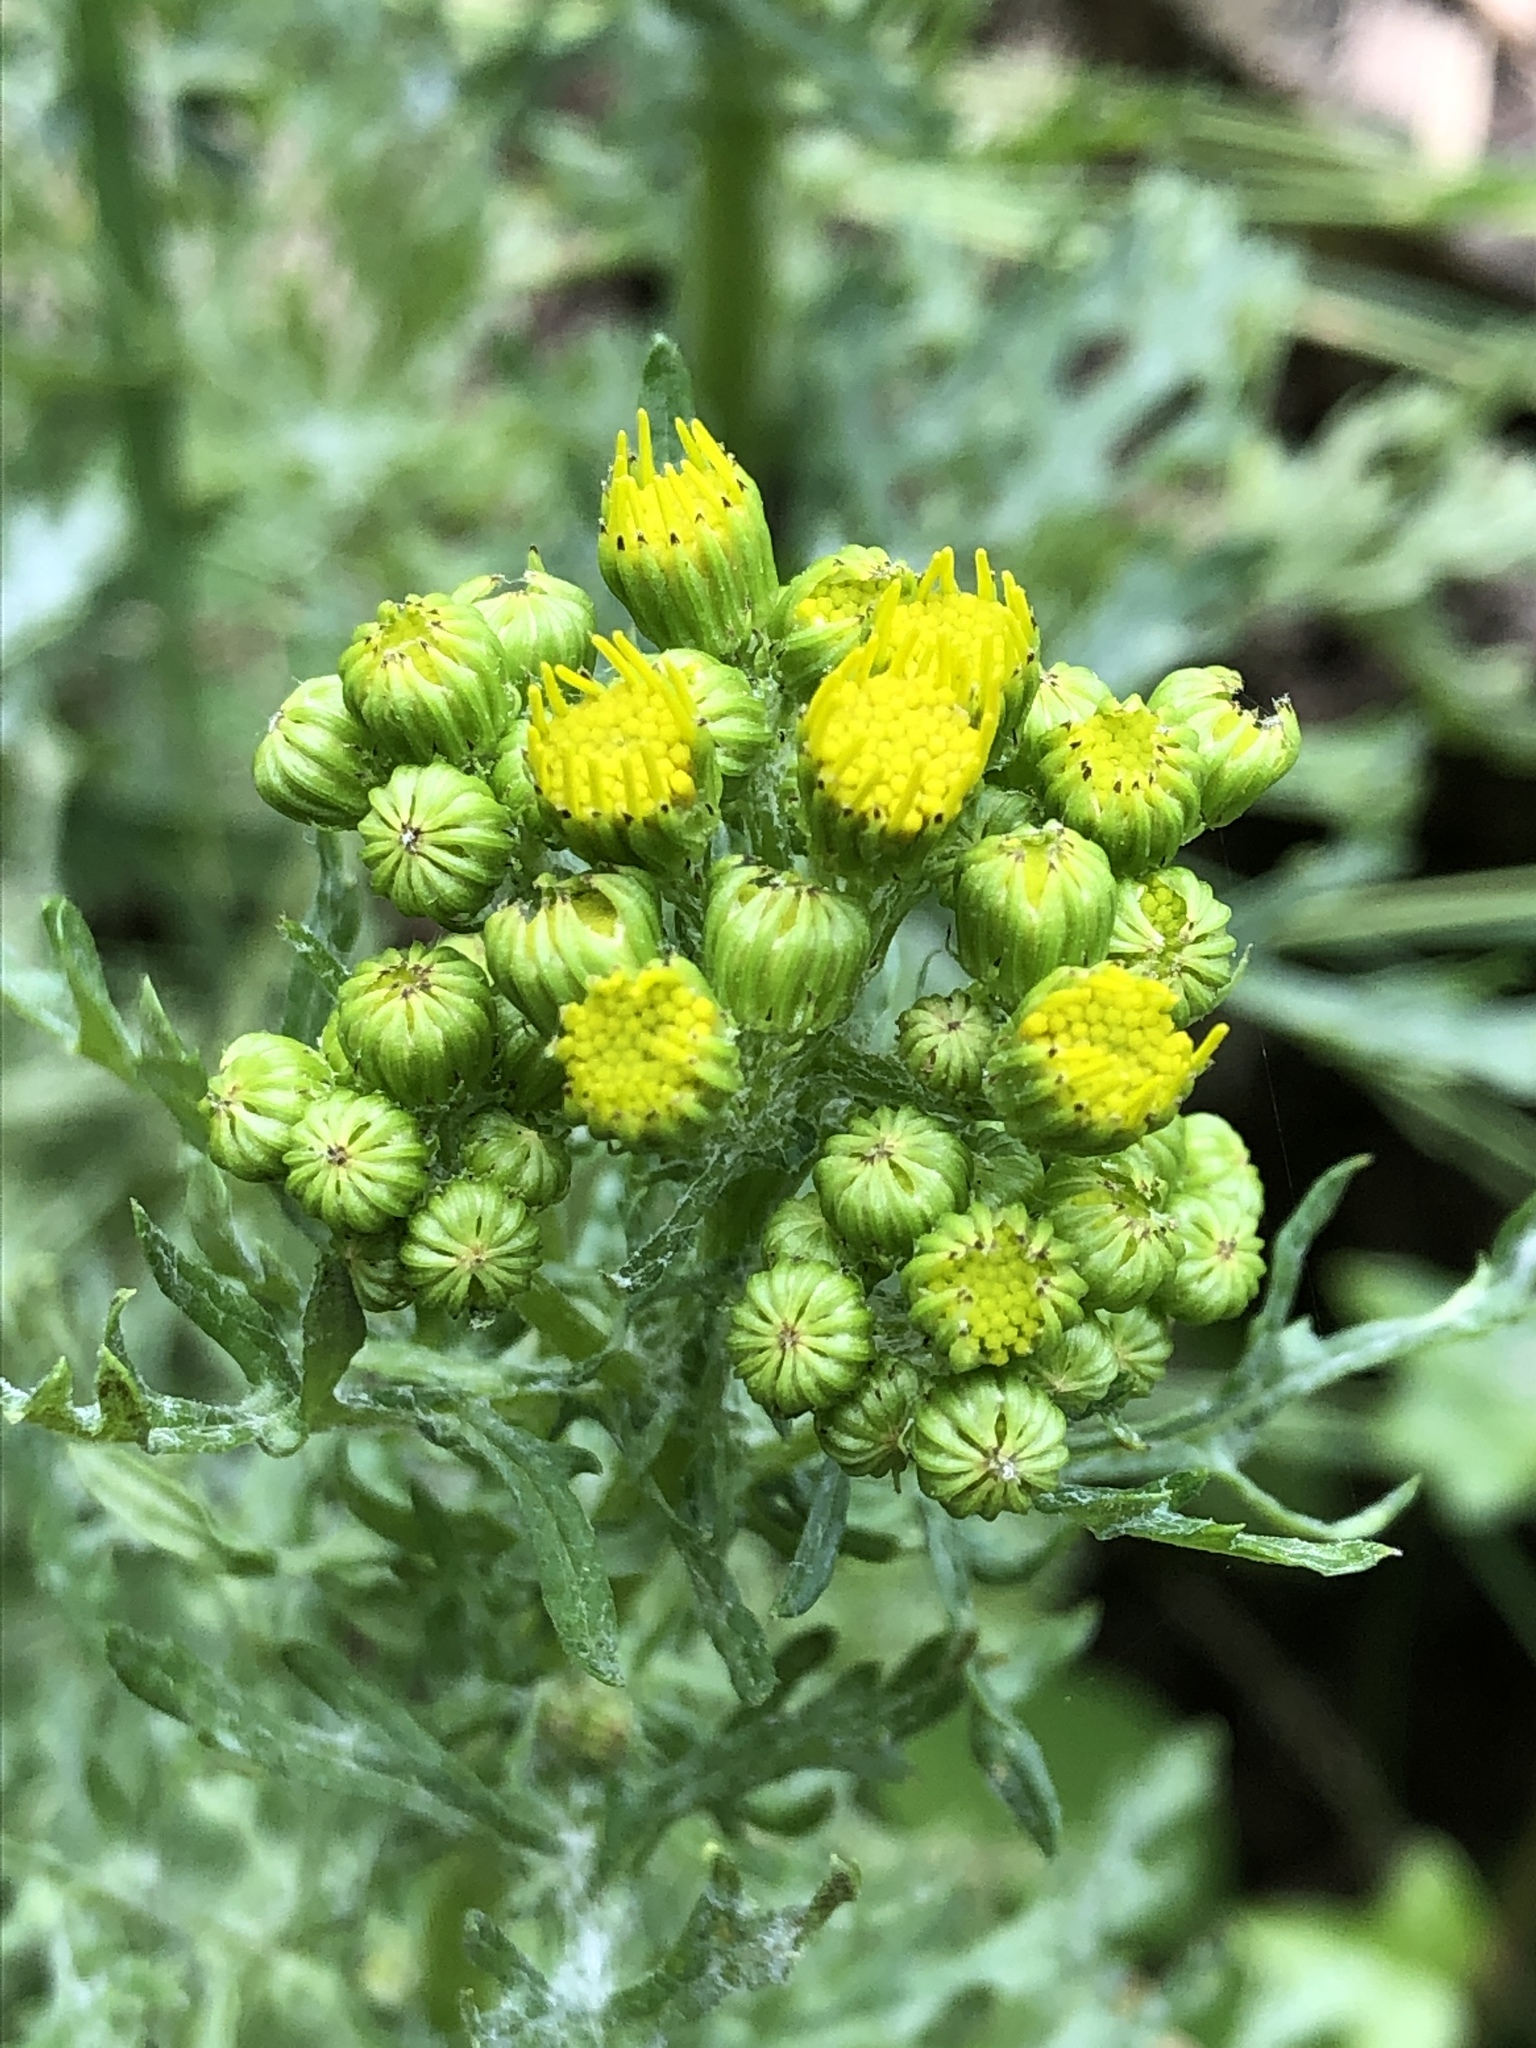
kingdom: Plantae
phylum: Tracheophyta
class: Magnoliopsida
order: Asterales
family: Asteraceae
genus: Jacobaea
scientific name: Jacobaea vulgaris
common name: Stinking willie
